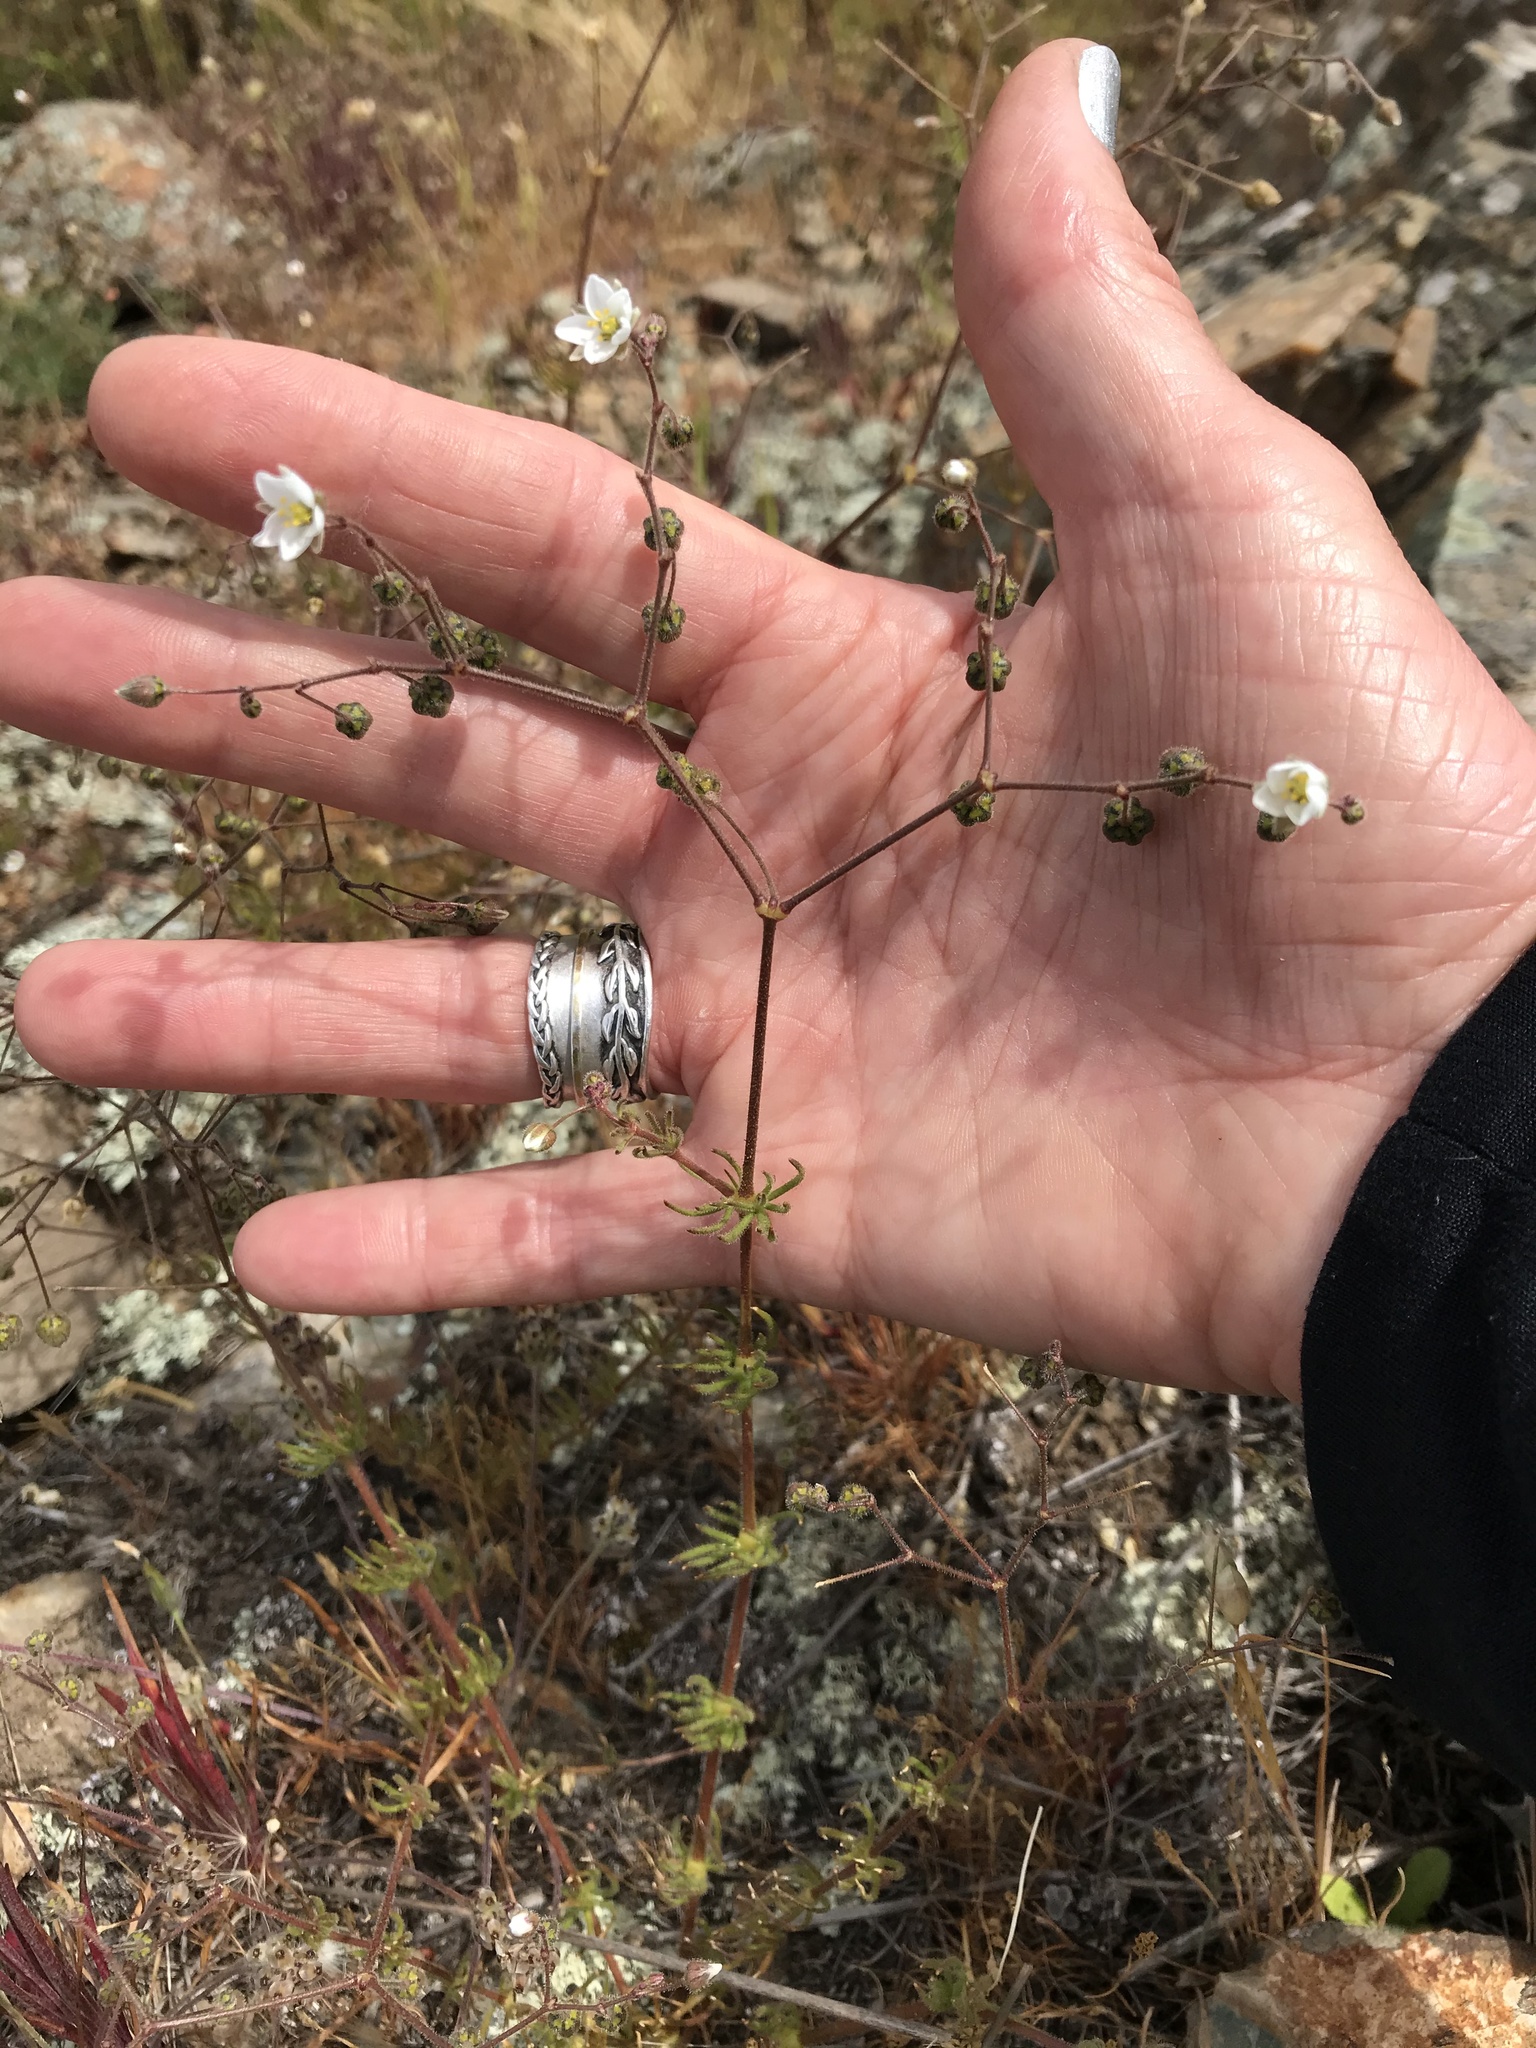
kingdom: Plantae
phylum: Tracheophyta
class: Magnoliopsida
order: Caryophyllales
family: Caryophyllaceae
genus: Spergula
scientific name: Spergula arvensis
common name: Corn spurrey
